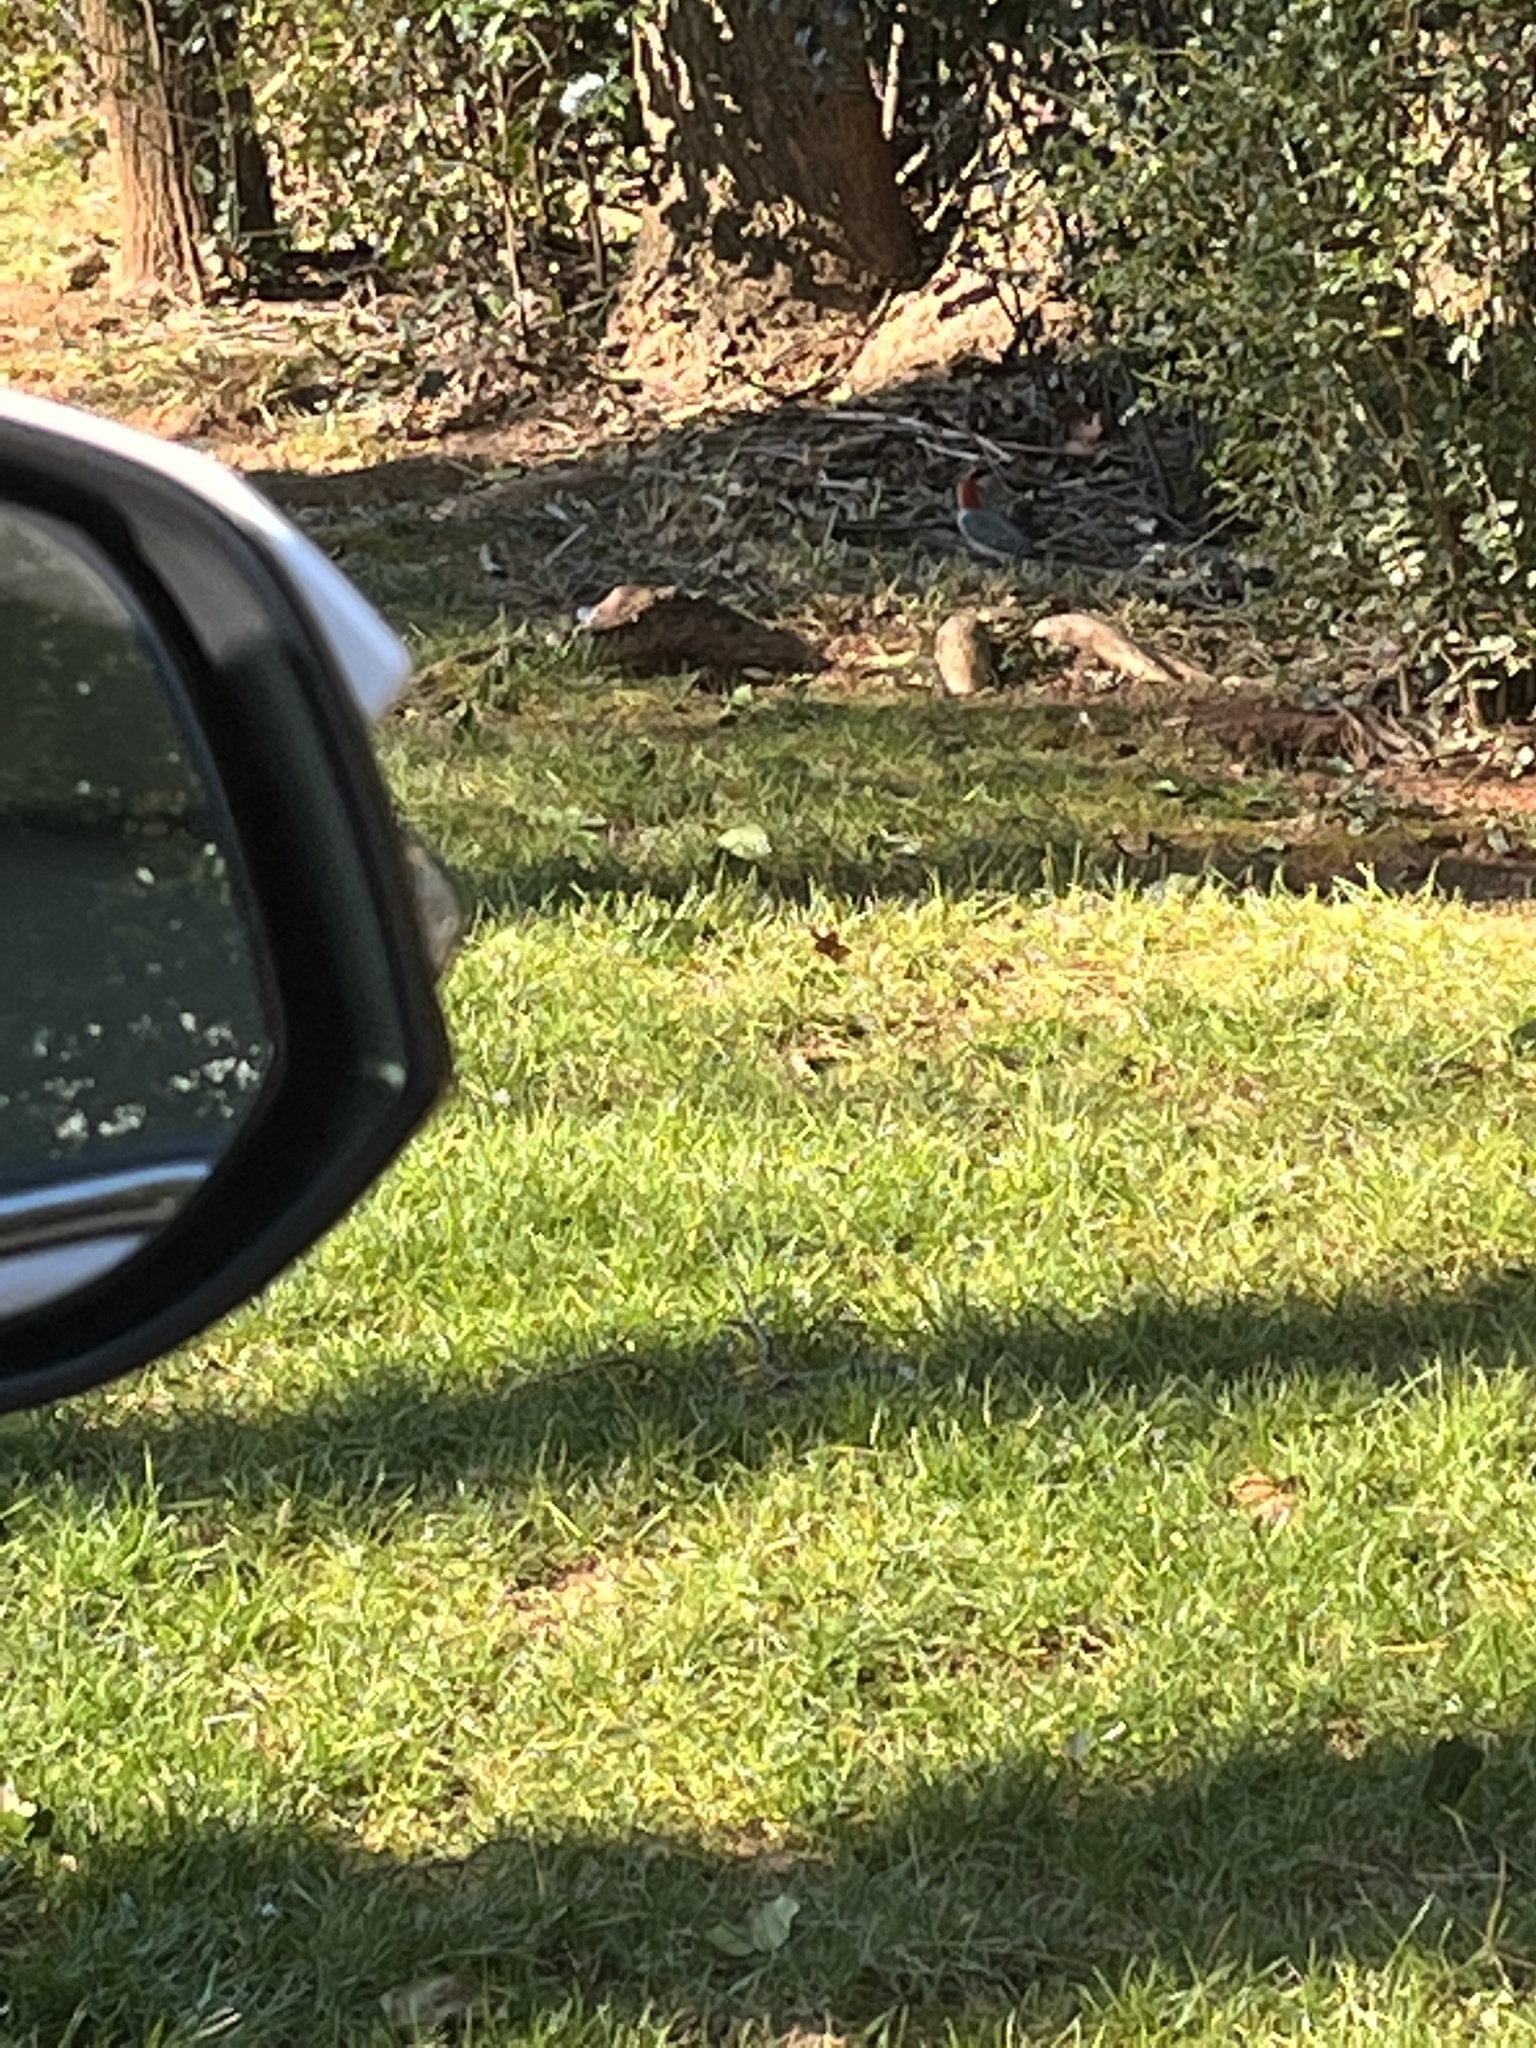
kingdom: Animalia
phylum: Chordata
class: Aves
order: Piciformes
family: Picidae
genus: Melanerpes
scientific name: Melanerpes carolinus
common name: Red-bellied woodpecker
